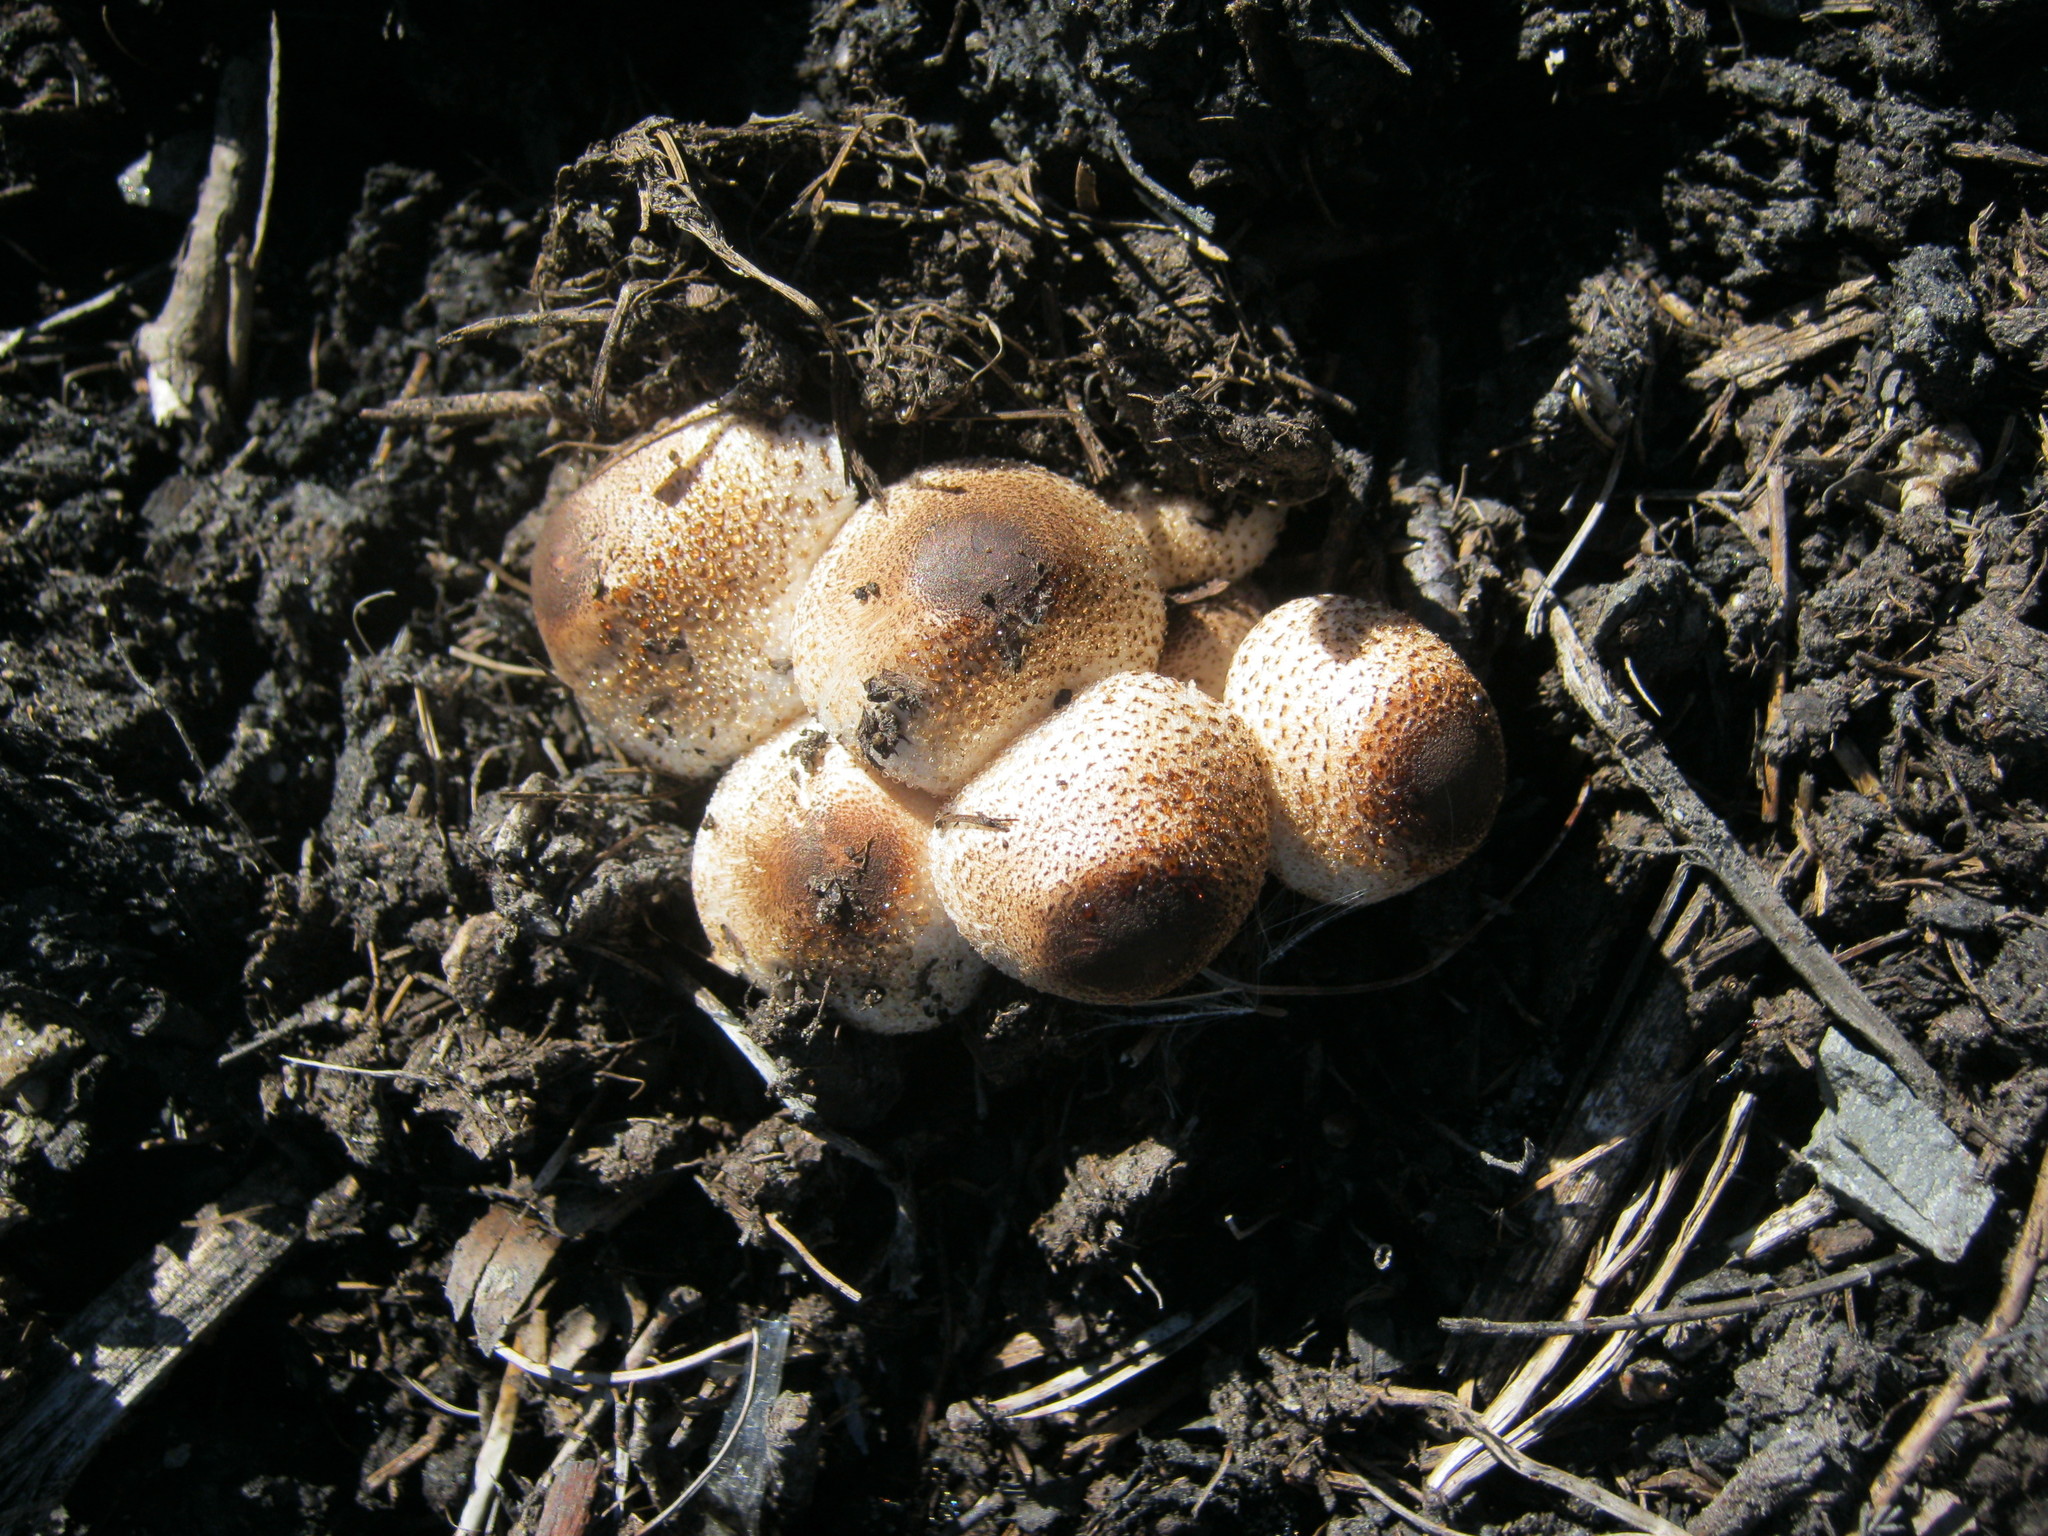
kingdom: Fungi
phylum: Basidiomycota
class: Agaricomycetes
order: Agaricales
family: Agaricaceae
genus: Leucoagaricus
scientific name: Leucoagaricus meleagris
